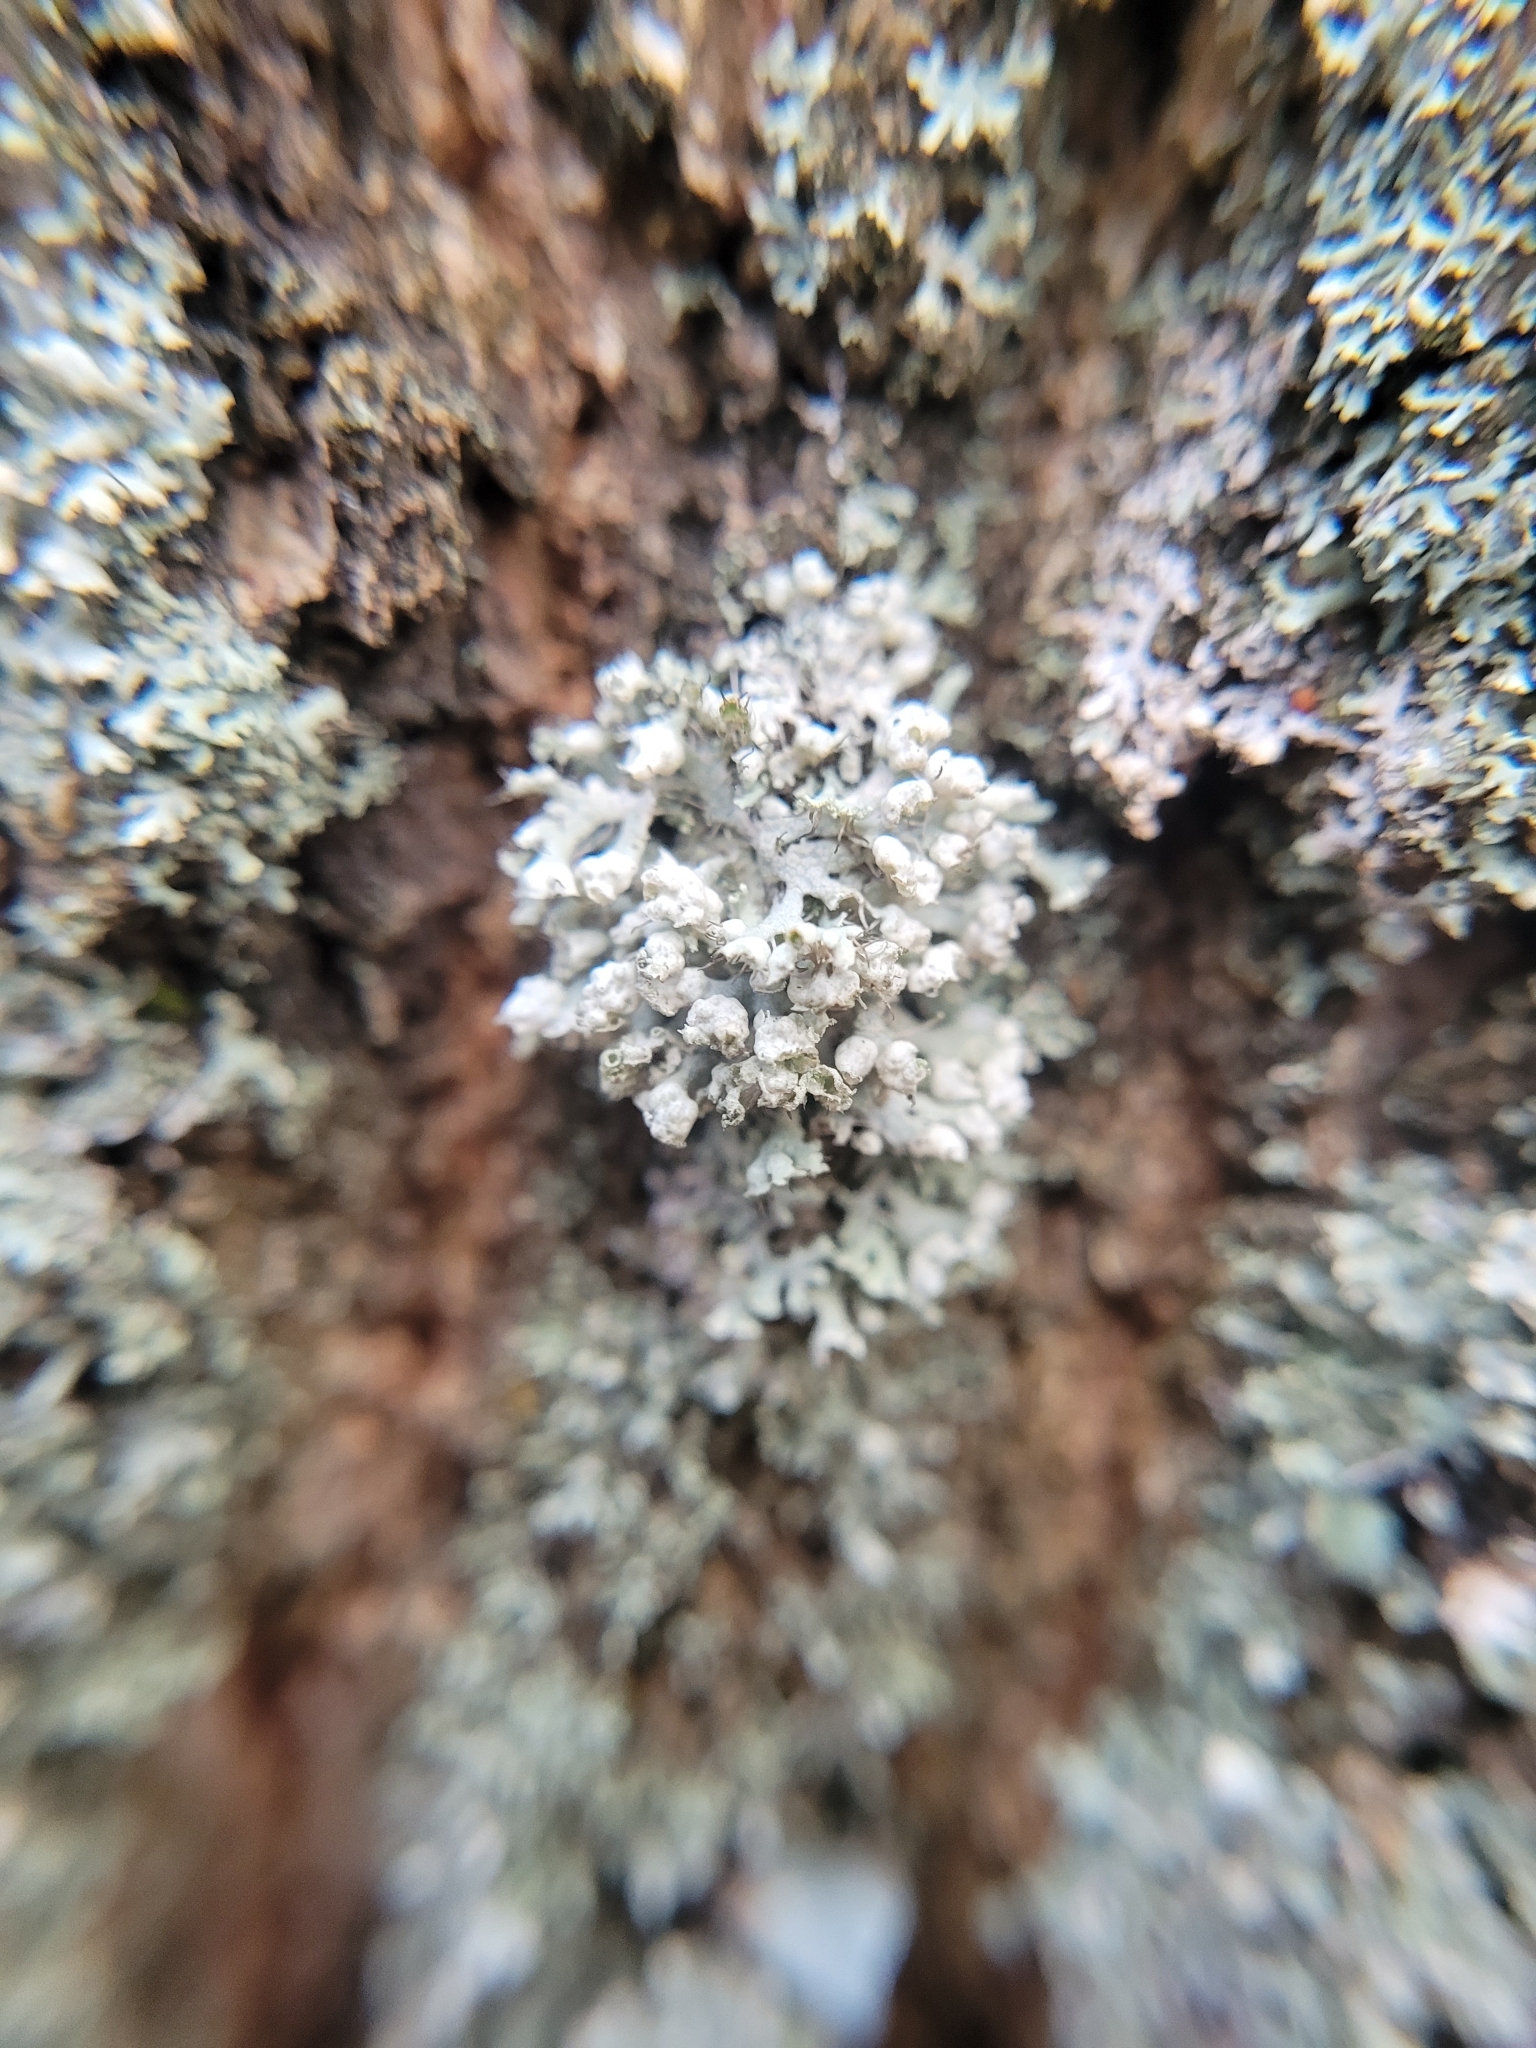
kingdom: Fungi
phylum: Ascomycota
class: Lecanoromycetes
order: Caliciales
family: Physciaceae
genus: Physcia
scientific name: Physcia adscendens
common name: Hooded rosette lichen
